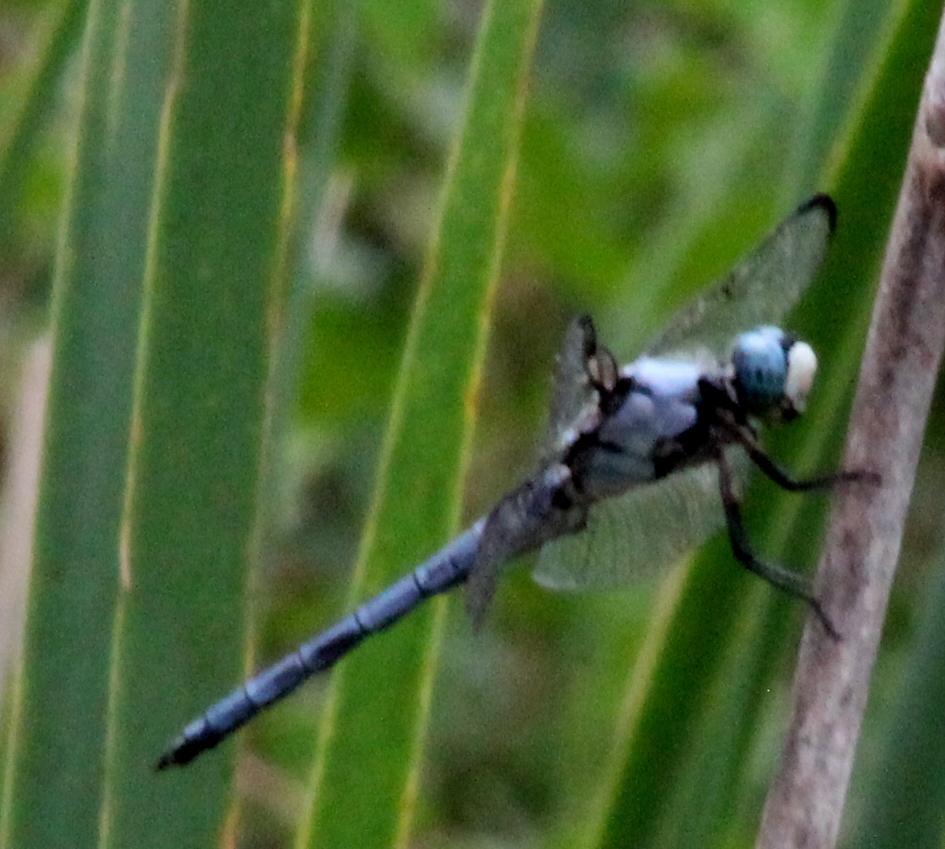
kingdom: Animalia
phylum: Arthropoda
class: Insecta
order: Odonata
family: Libellulidae
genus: Libellula
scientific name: Libellula vibrans
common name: Great blue skimmer
